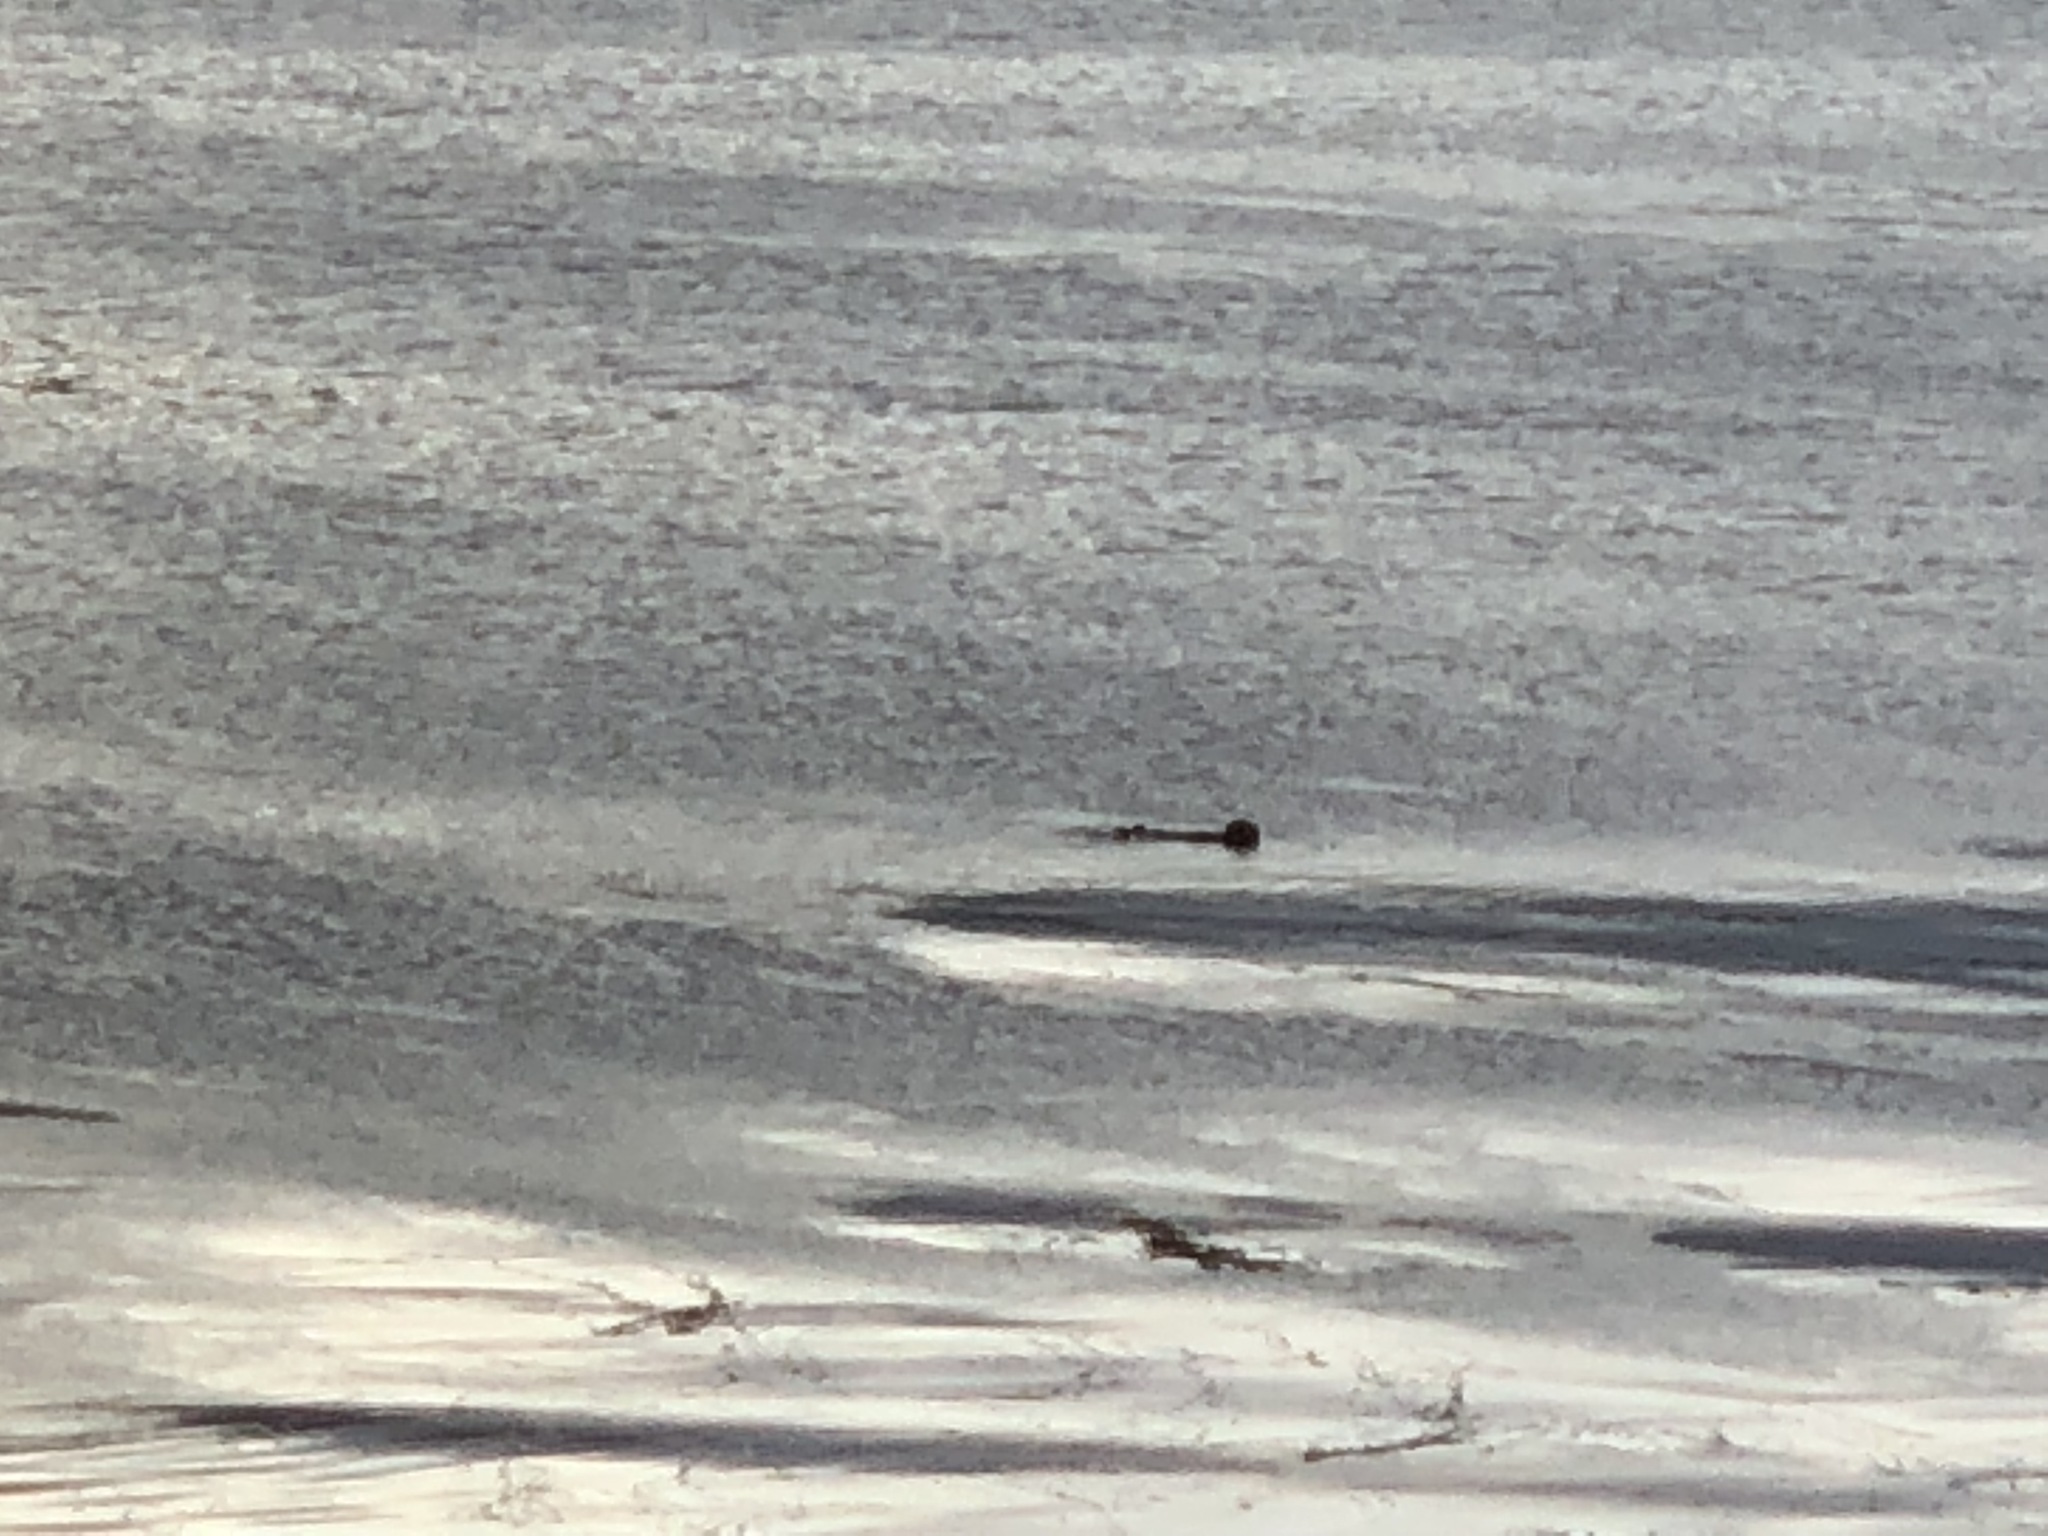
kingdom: Animalia
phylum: Chordata
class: Mammalia
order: Carnivora
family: Mustelidae
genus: Enhydra
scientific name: Enhydra lutris
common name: Sea otter
